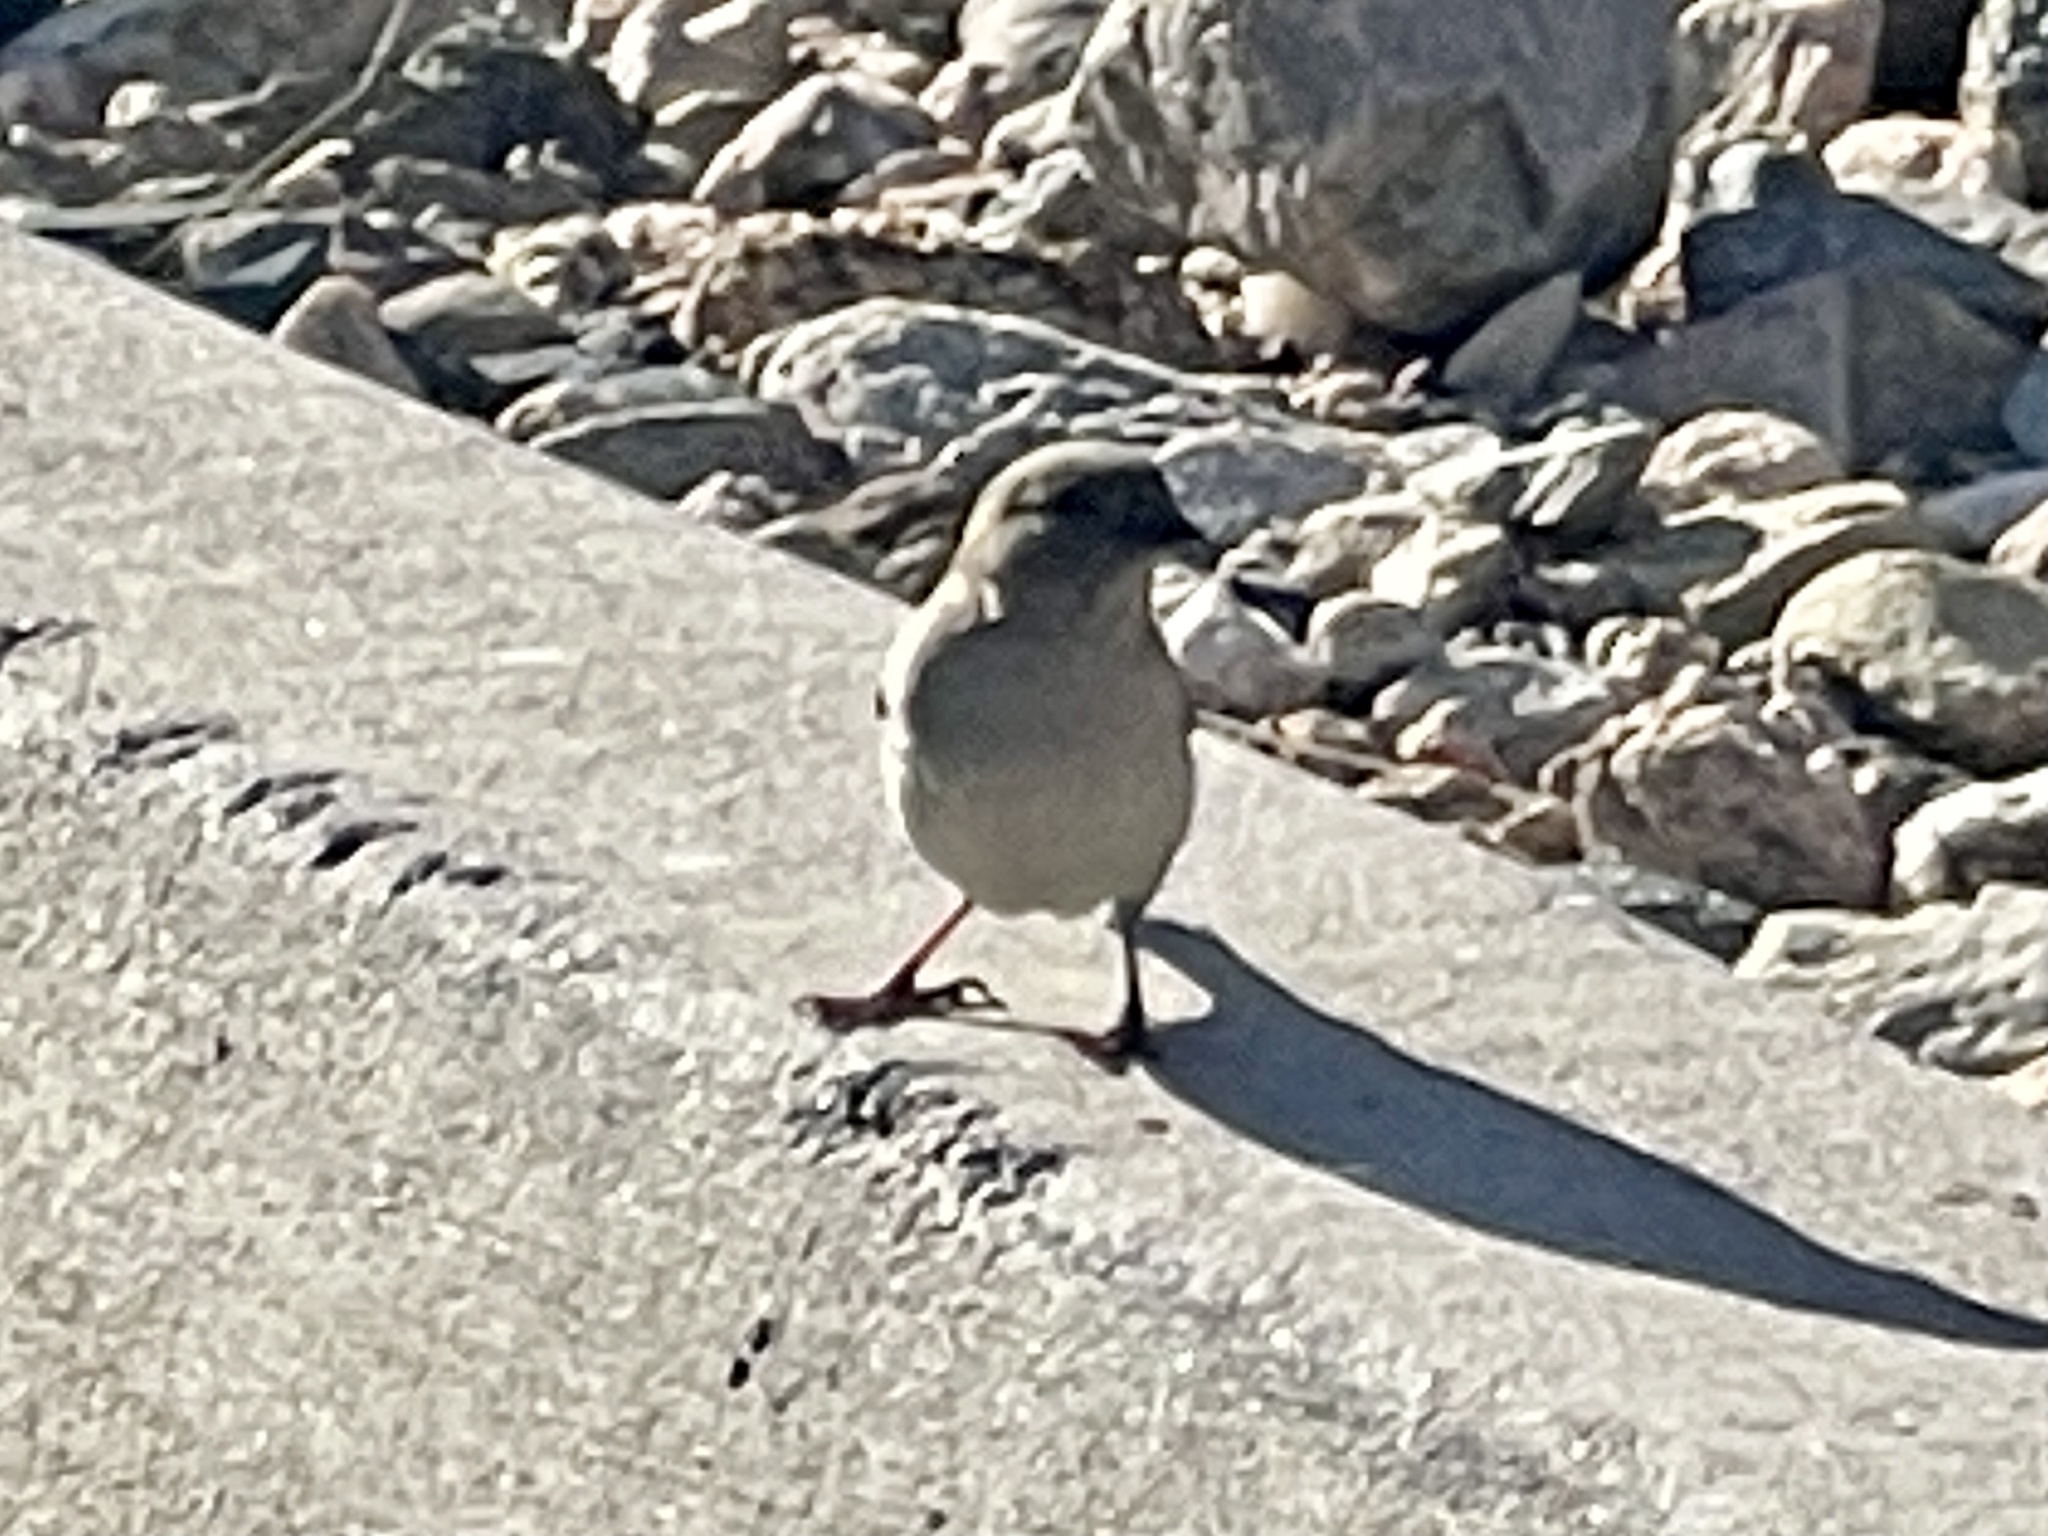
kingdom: Animalia
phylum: Chordata
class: Aves
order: Passeriformes
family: Passeridae
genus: Passer
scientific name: Passer domesticus
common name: House sparrow
